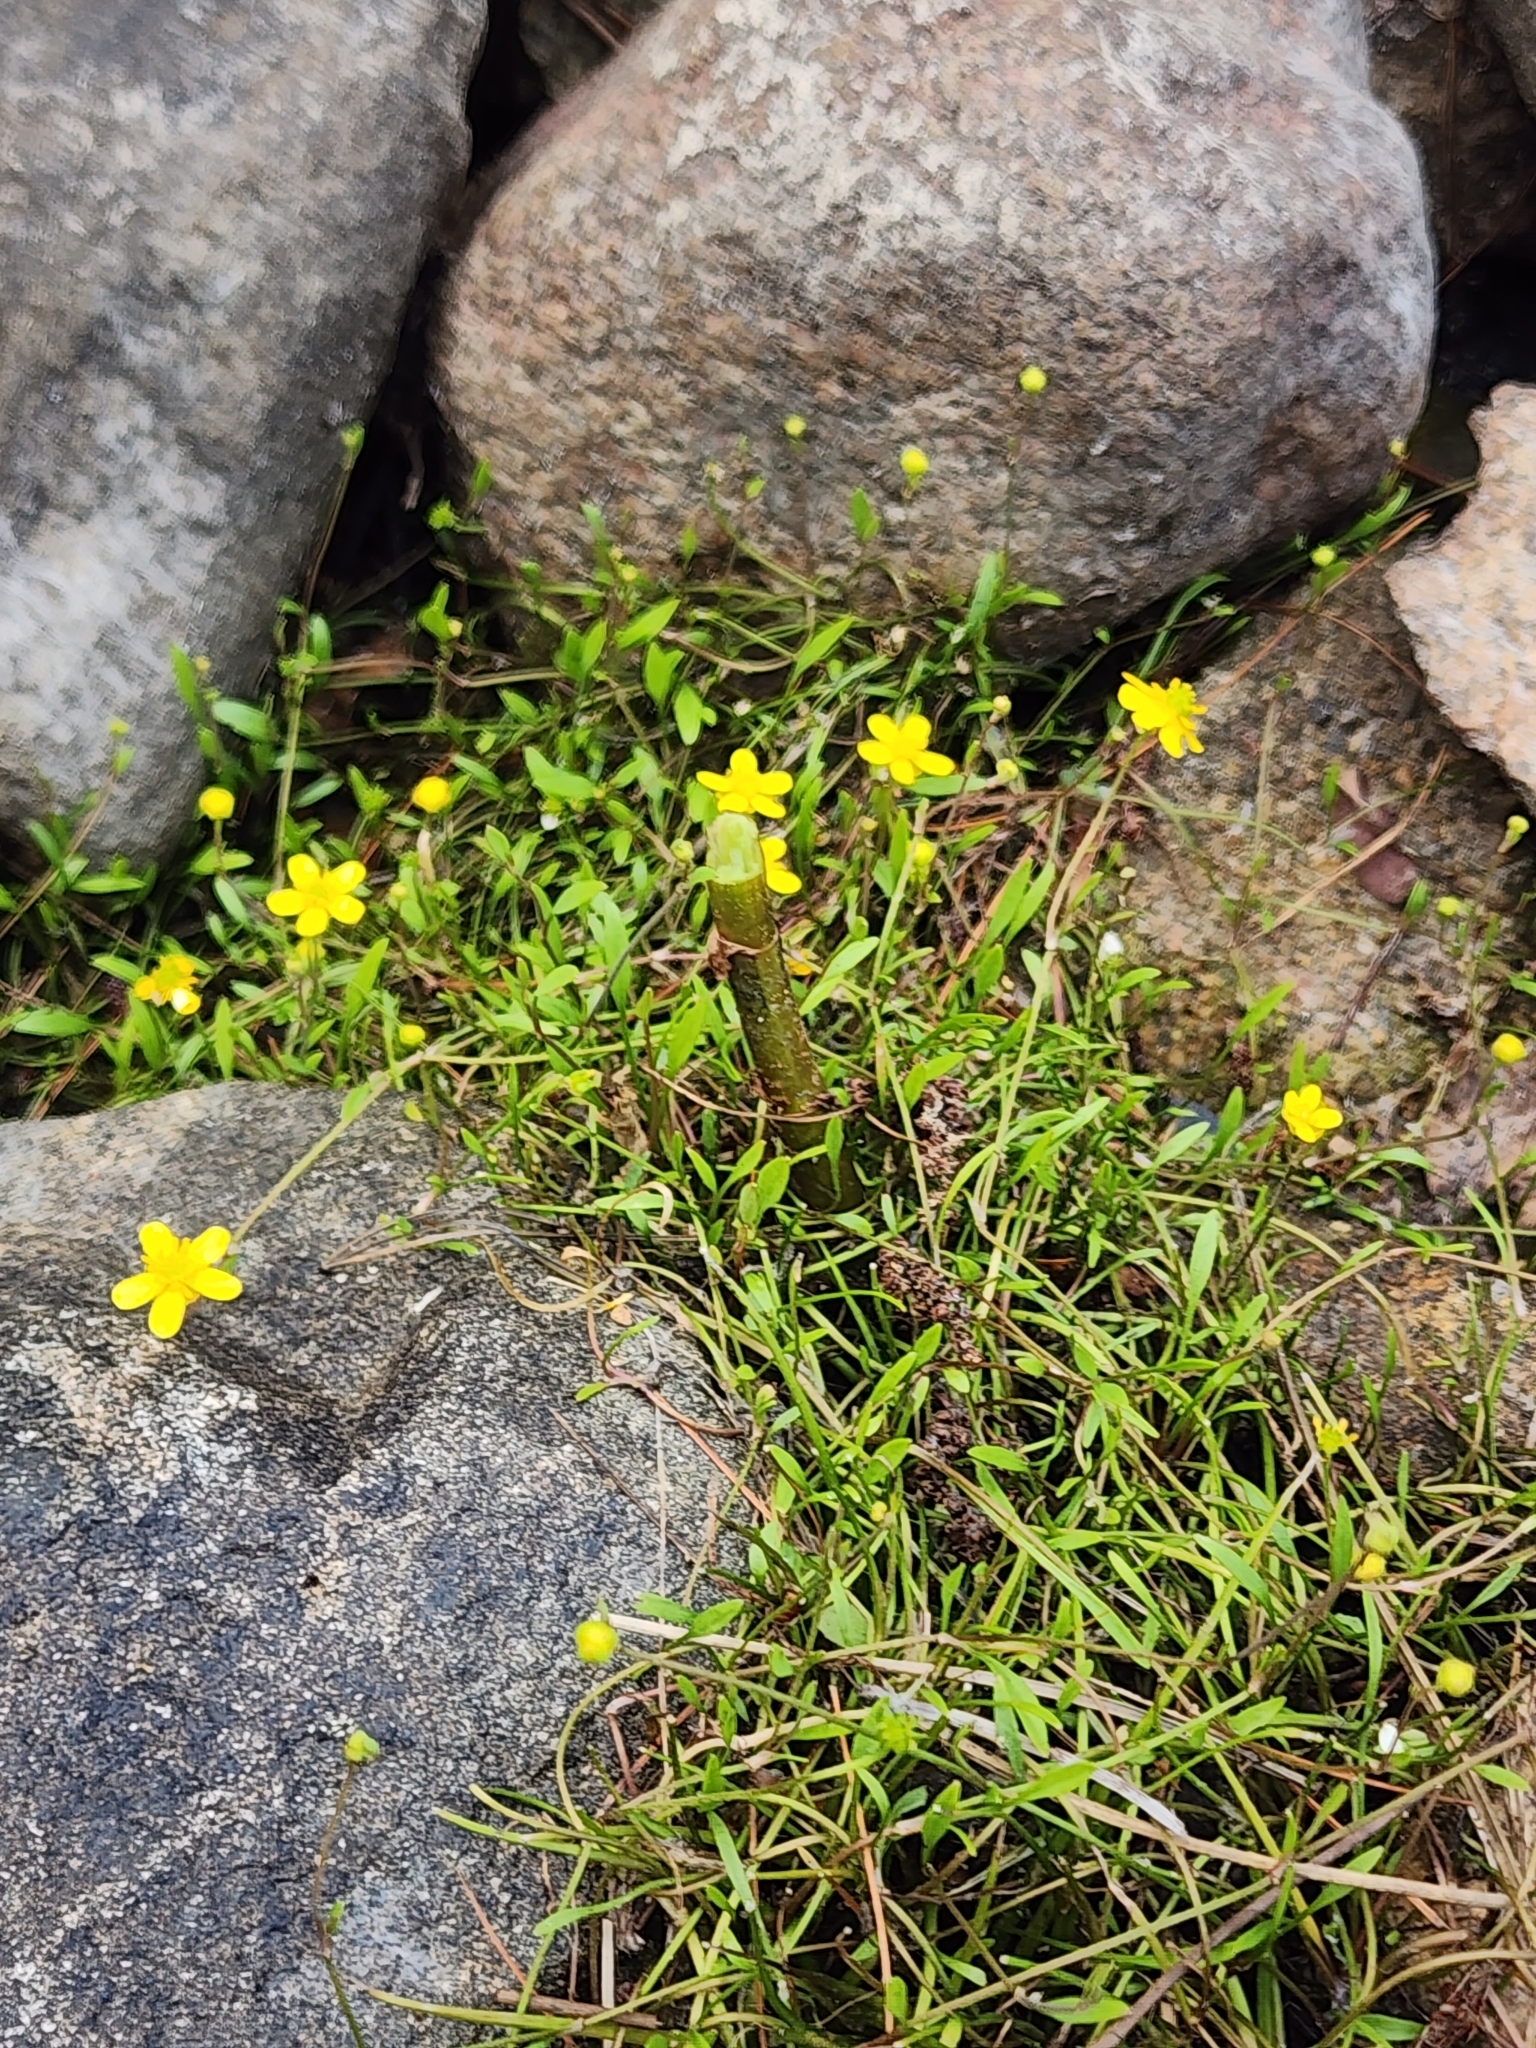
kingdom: Plantae
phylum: Tracheophyta
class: Magnoliopsida
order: Ranunculales
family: Ranunculaceae
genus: Ranunculus
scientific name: Ranunculus flammula
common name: Lesser spearwort
